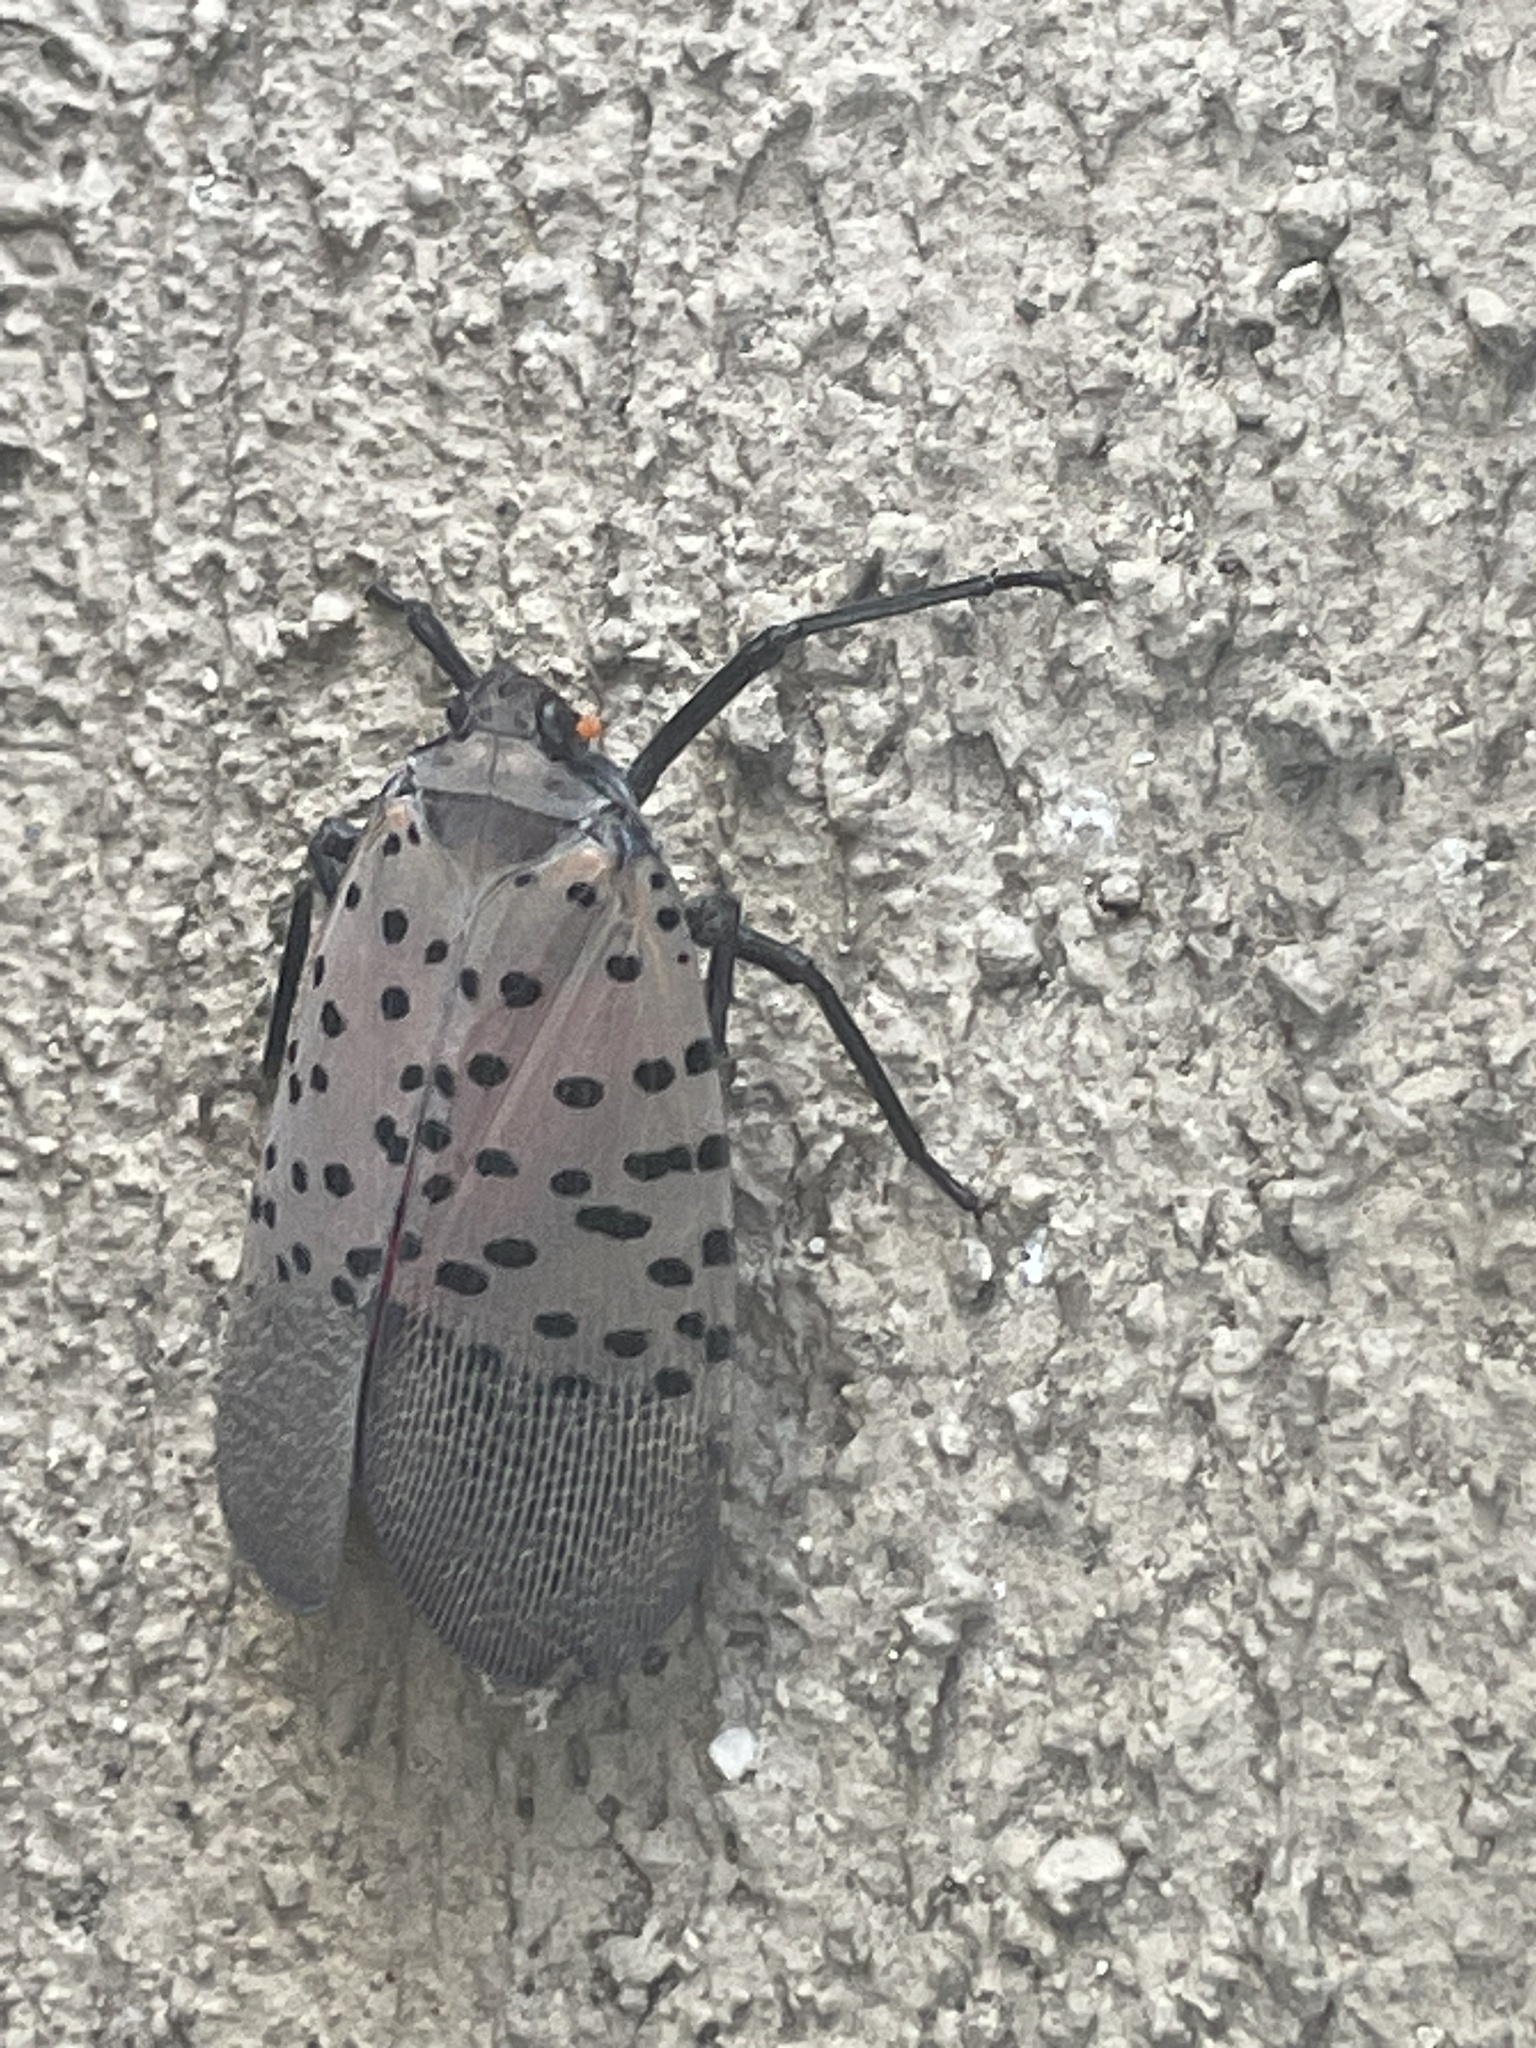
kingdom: Animalia
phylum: Arthropoda
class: Insecta
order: Hemiptera
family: Fulgoridae
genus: Lycorma
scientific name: Lycorma delicatula
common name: Spotted lanternfly
